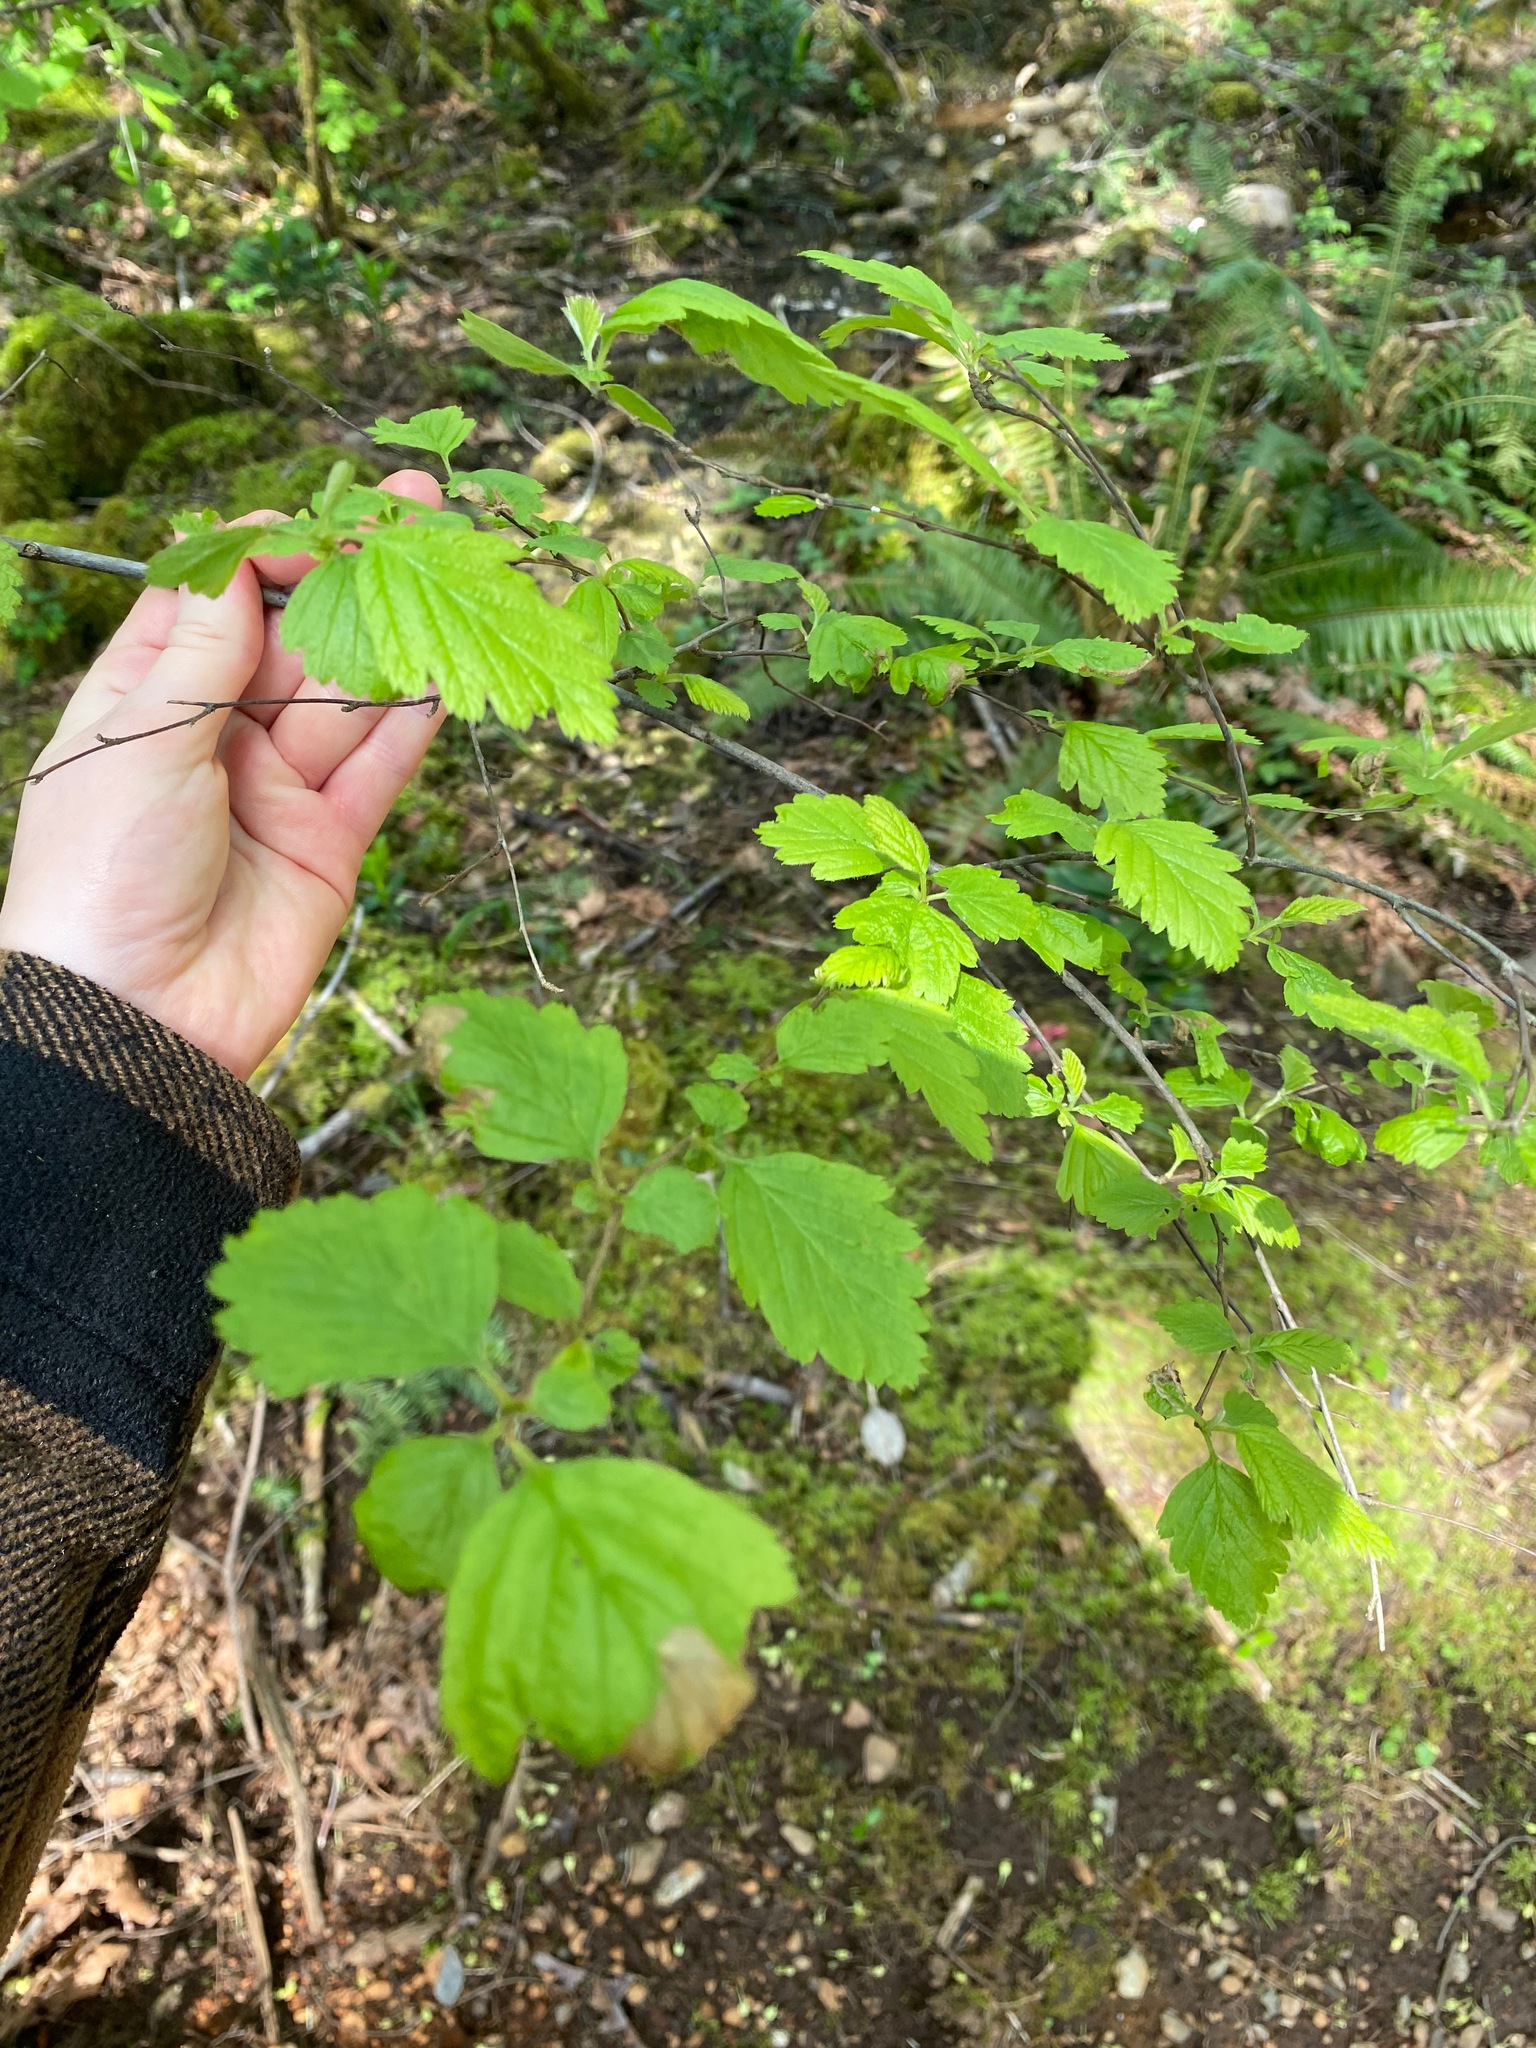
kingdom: Plantae
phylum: Tracheophyta
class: Magnoliopsida
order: Rosales
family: Rosaceae
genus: Holodiscus
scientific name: Holodiscus discolor
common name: Oceanspray
